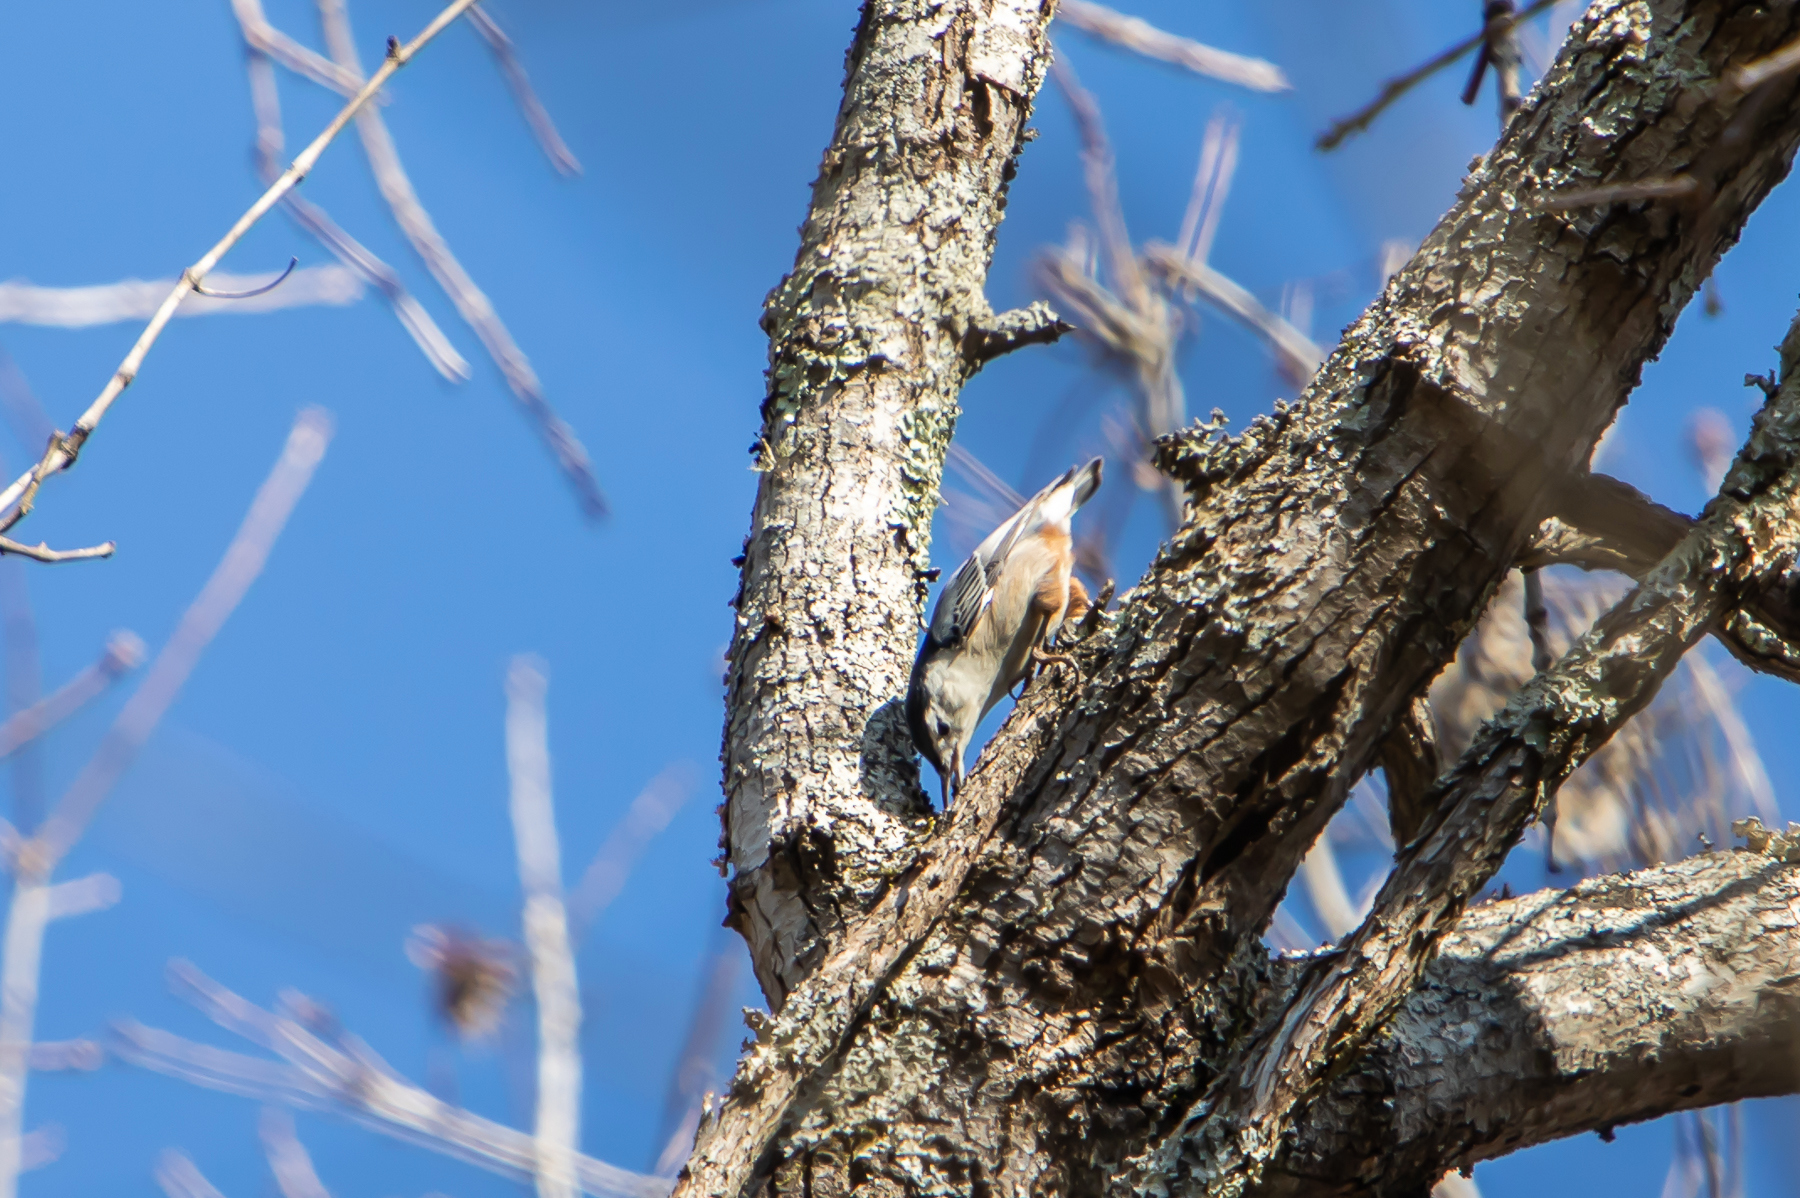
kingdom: Animalia
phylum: Chordata
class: Aves
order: Passeriformes
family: Sittidae
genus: Sitta
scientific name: Sitta carolinensis
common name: White-breasted nuthatch
